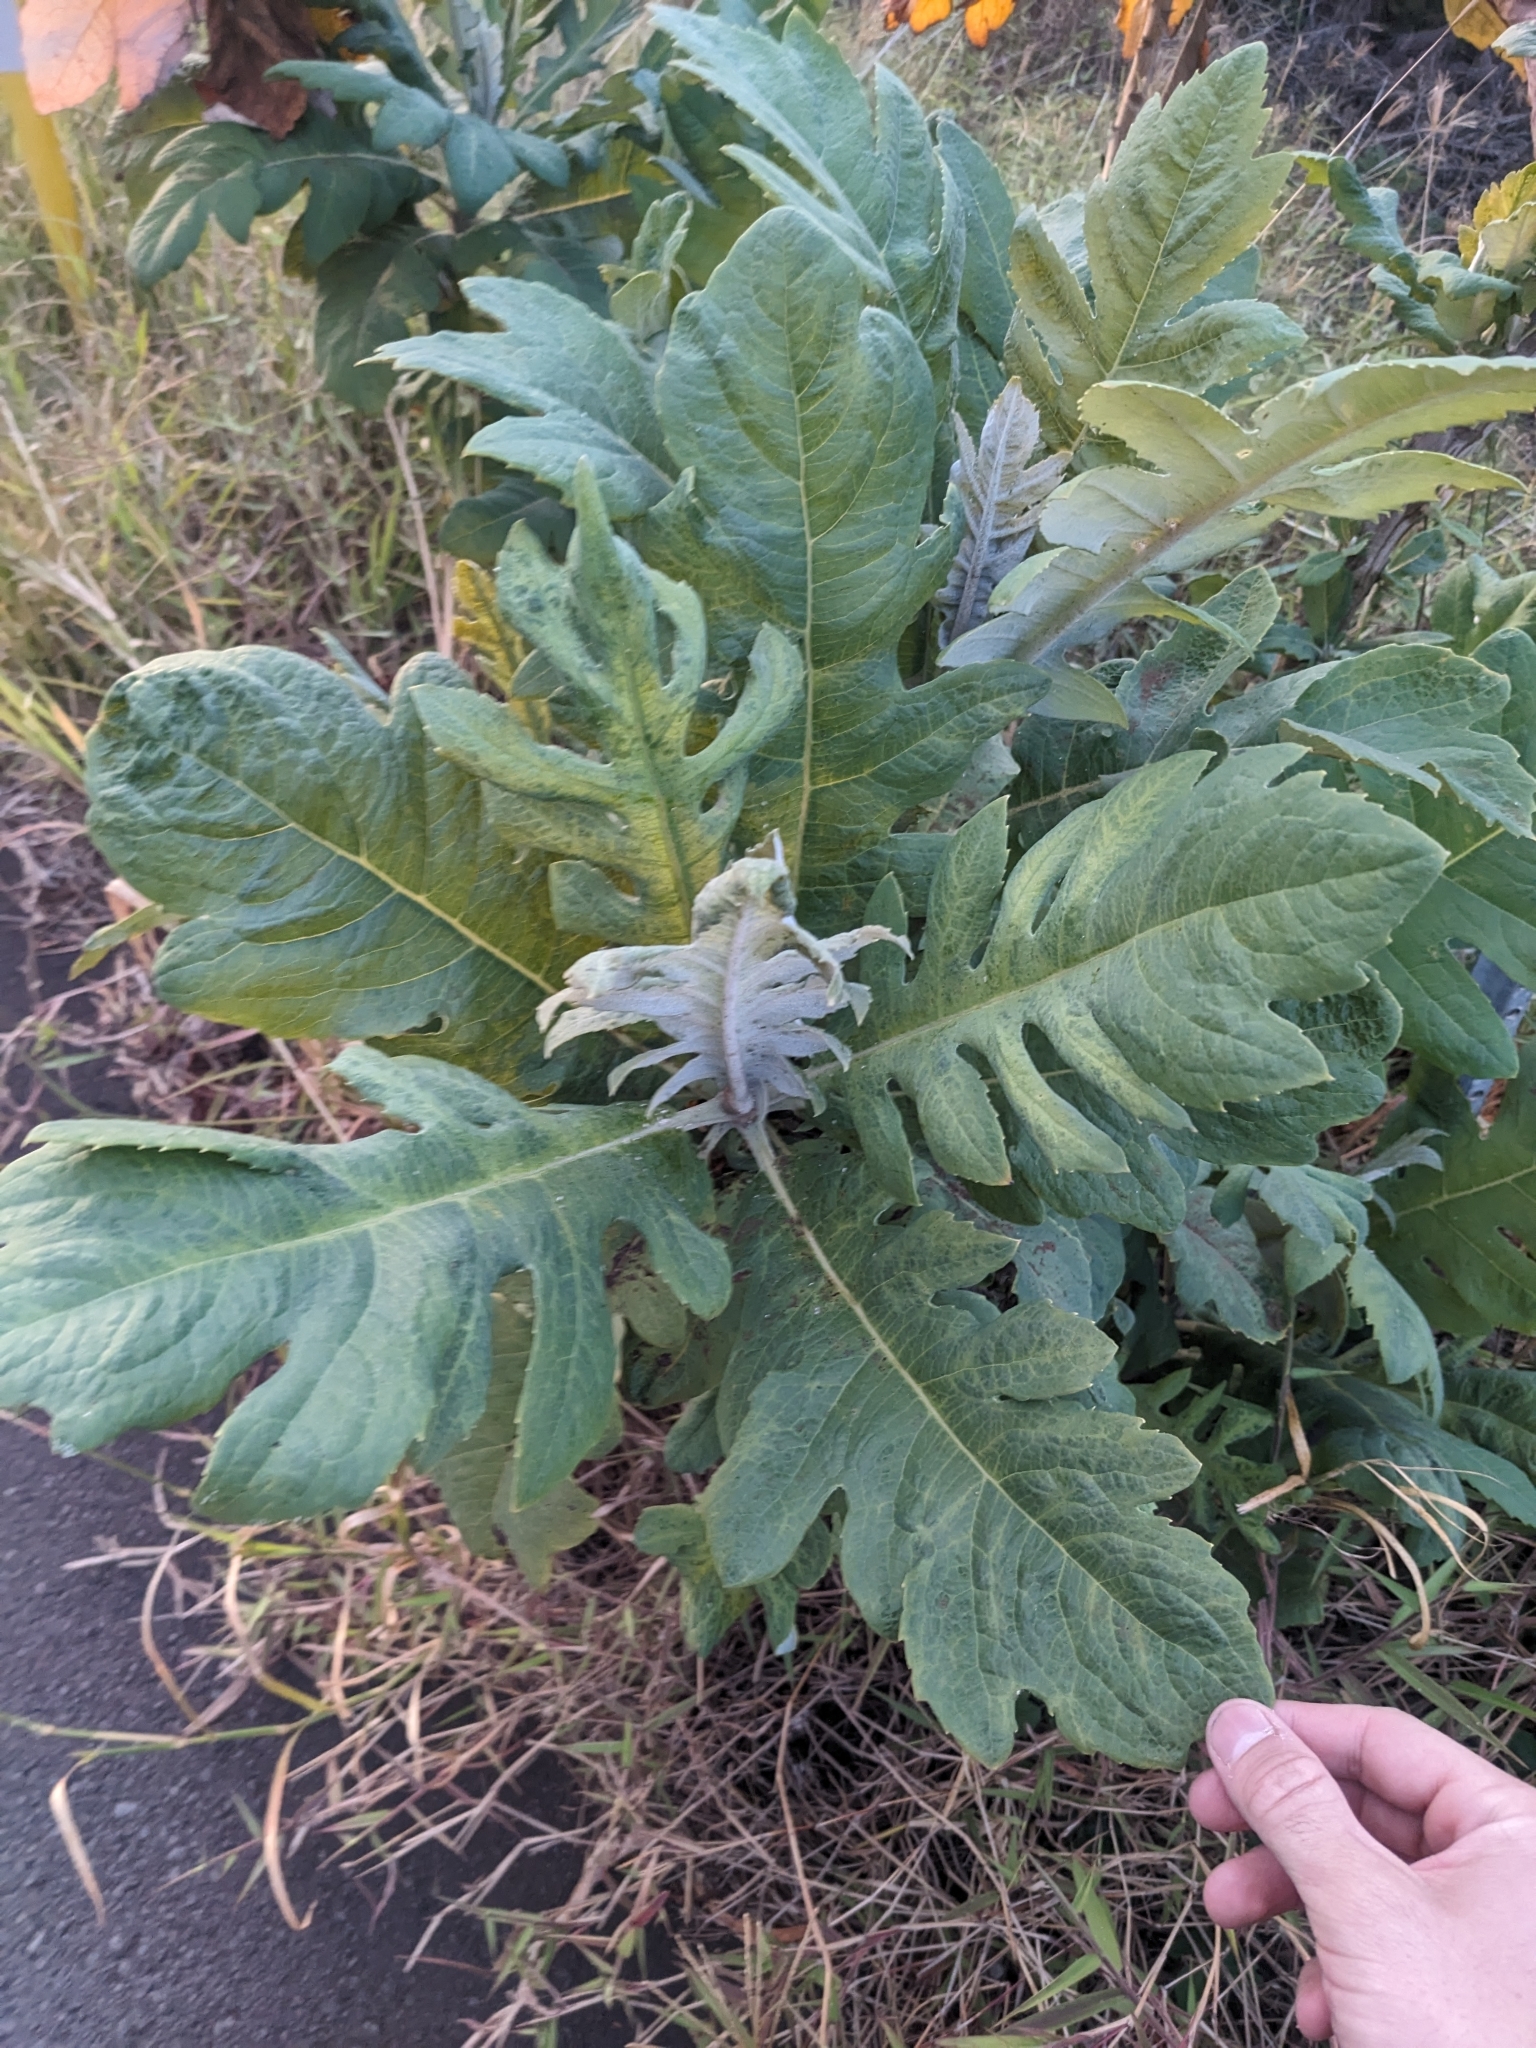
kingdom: Plantae
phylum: Tracheophyta
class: Magnoliopsida
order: Ranunculales
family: Papaveraceae
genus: Bocconia
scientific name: Bocconia frutescens
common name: Tree poppy
